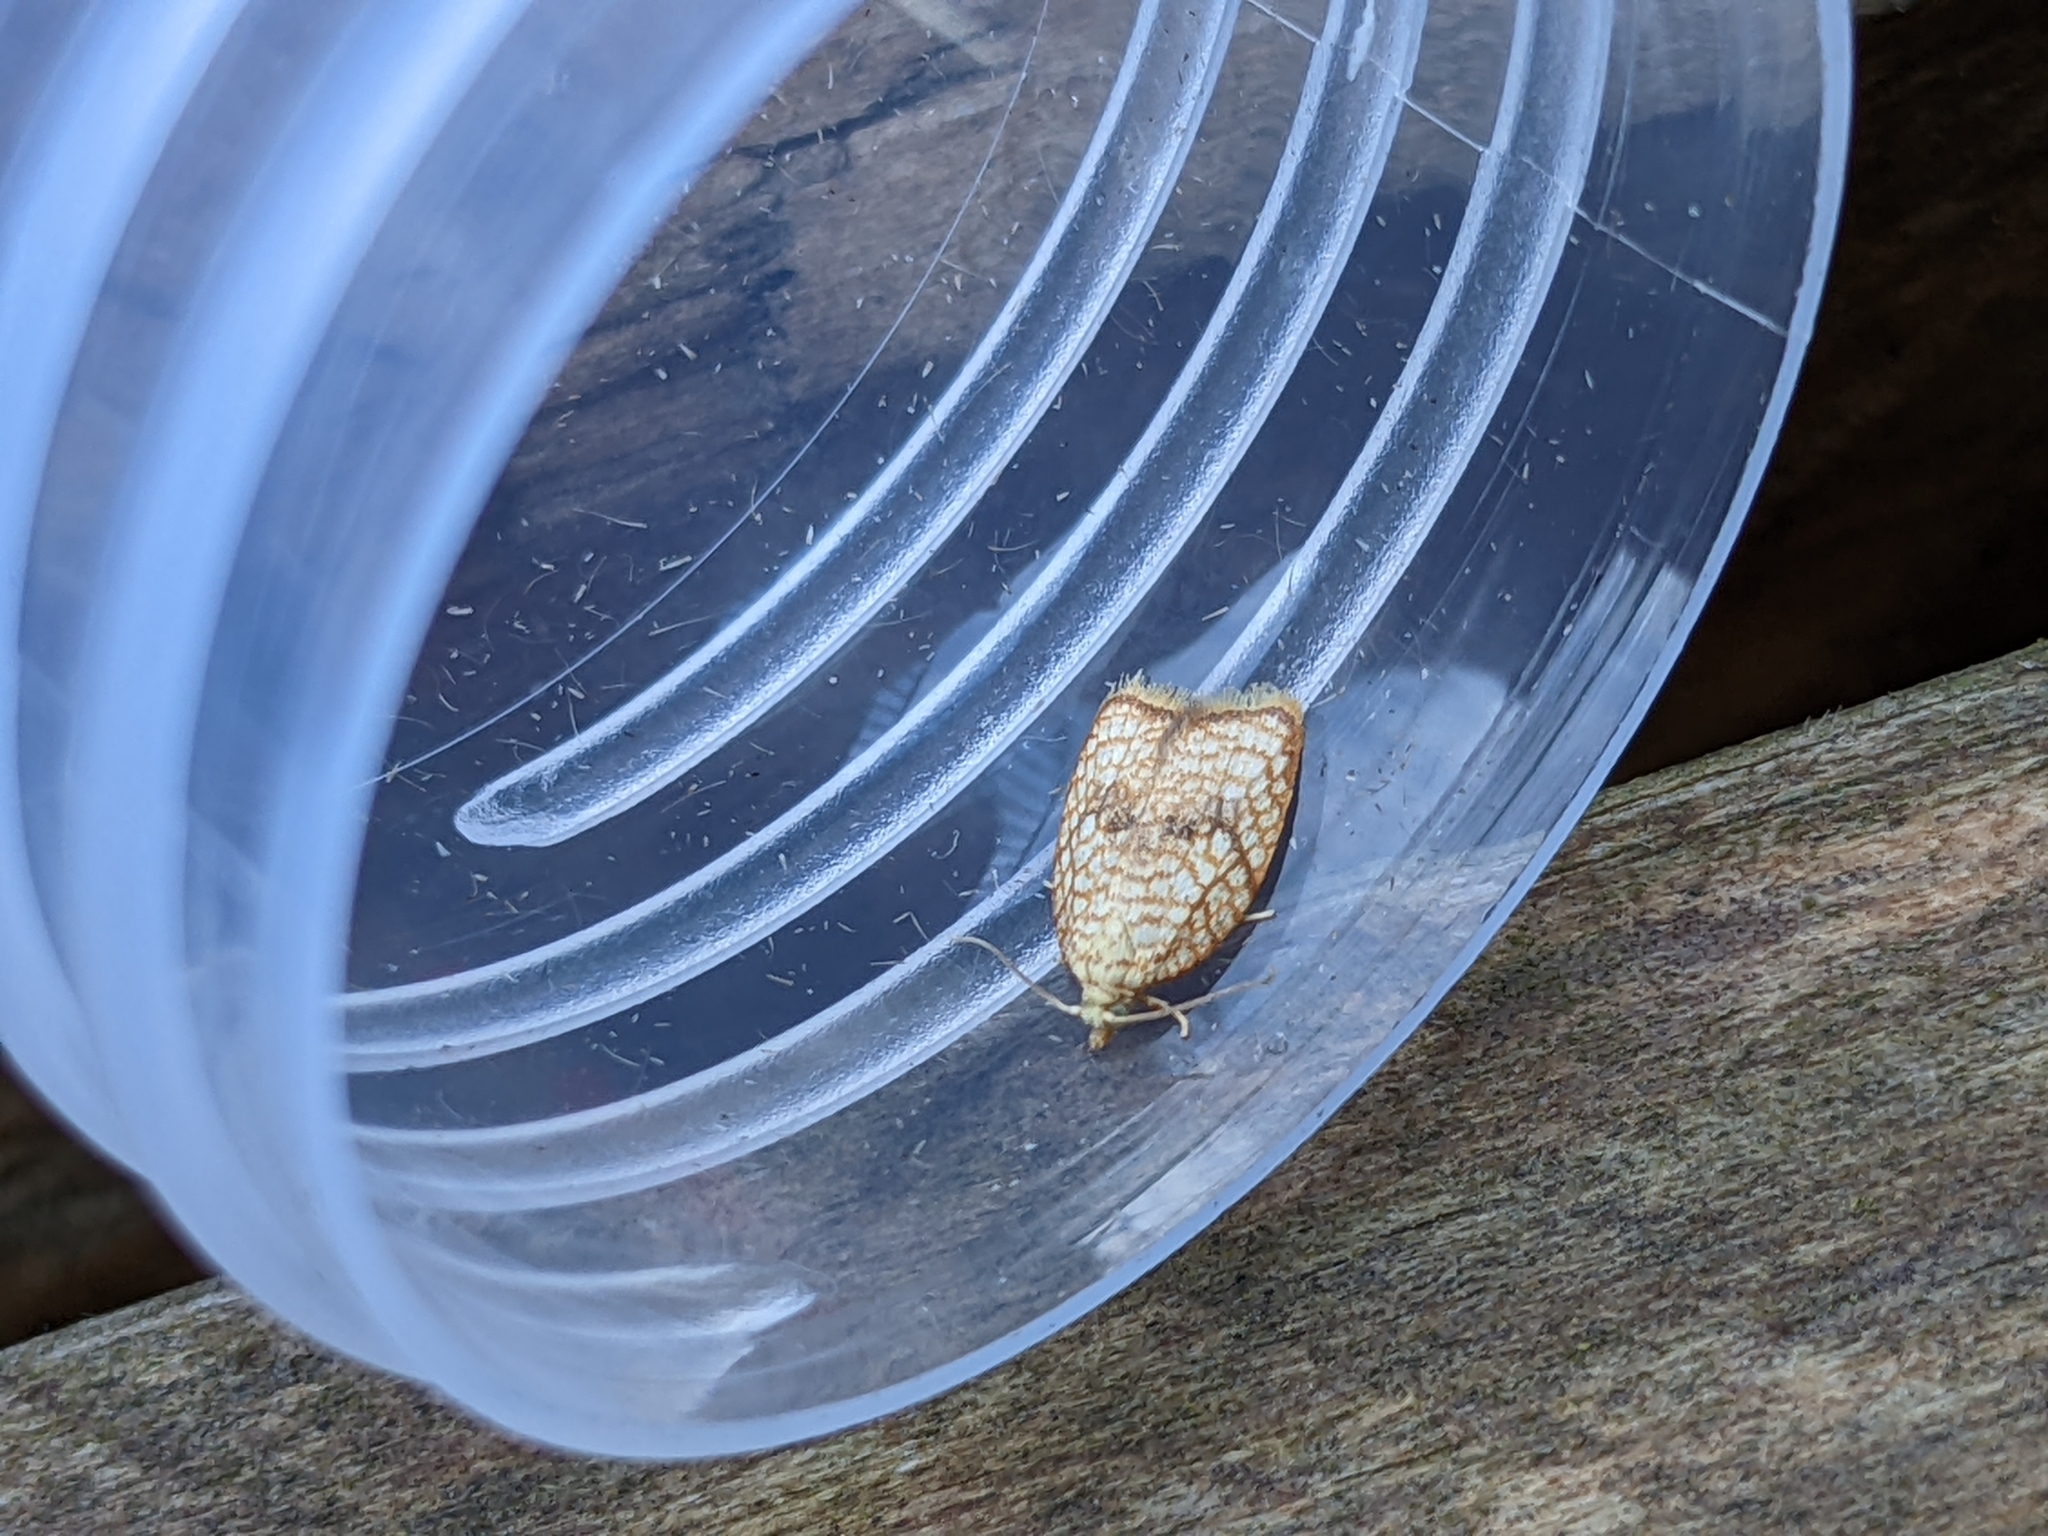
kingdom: Animalia
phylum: Arthropoda
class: Insecta
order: Lepidoptera
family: Tortricidae
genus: Acleris
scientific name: Acleris forsskaleana
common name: Maple button
